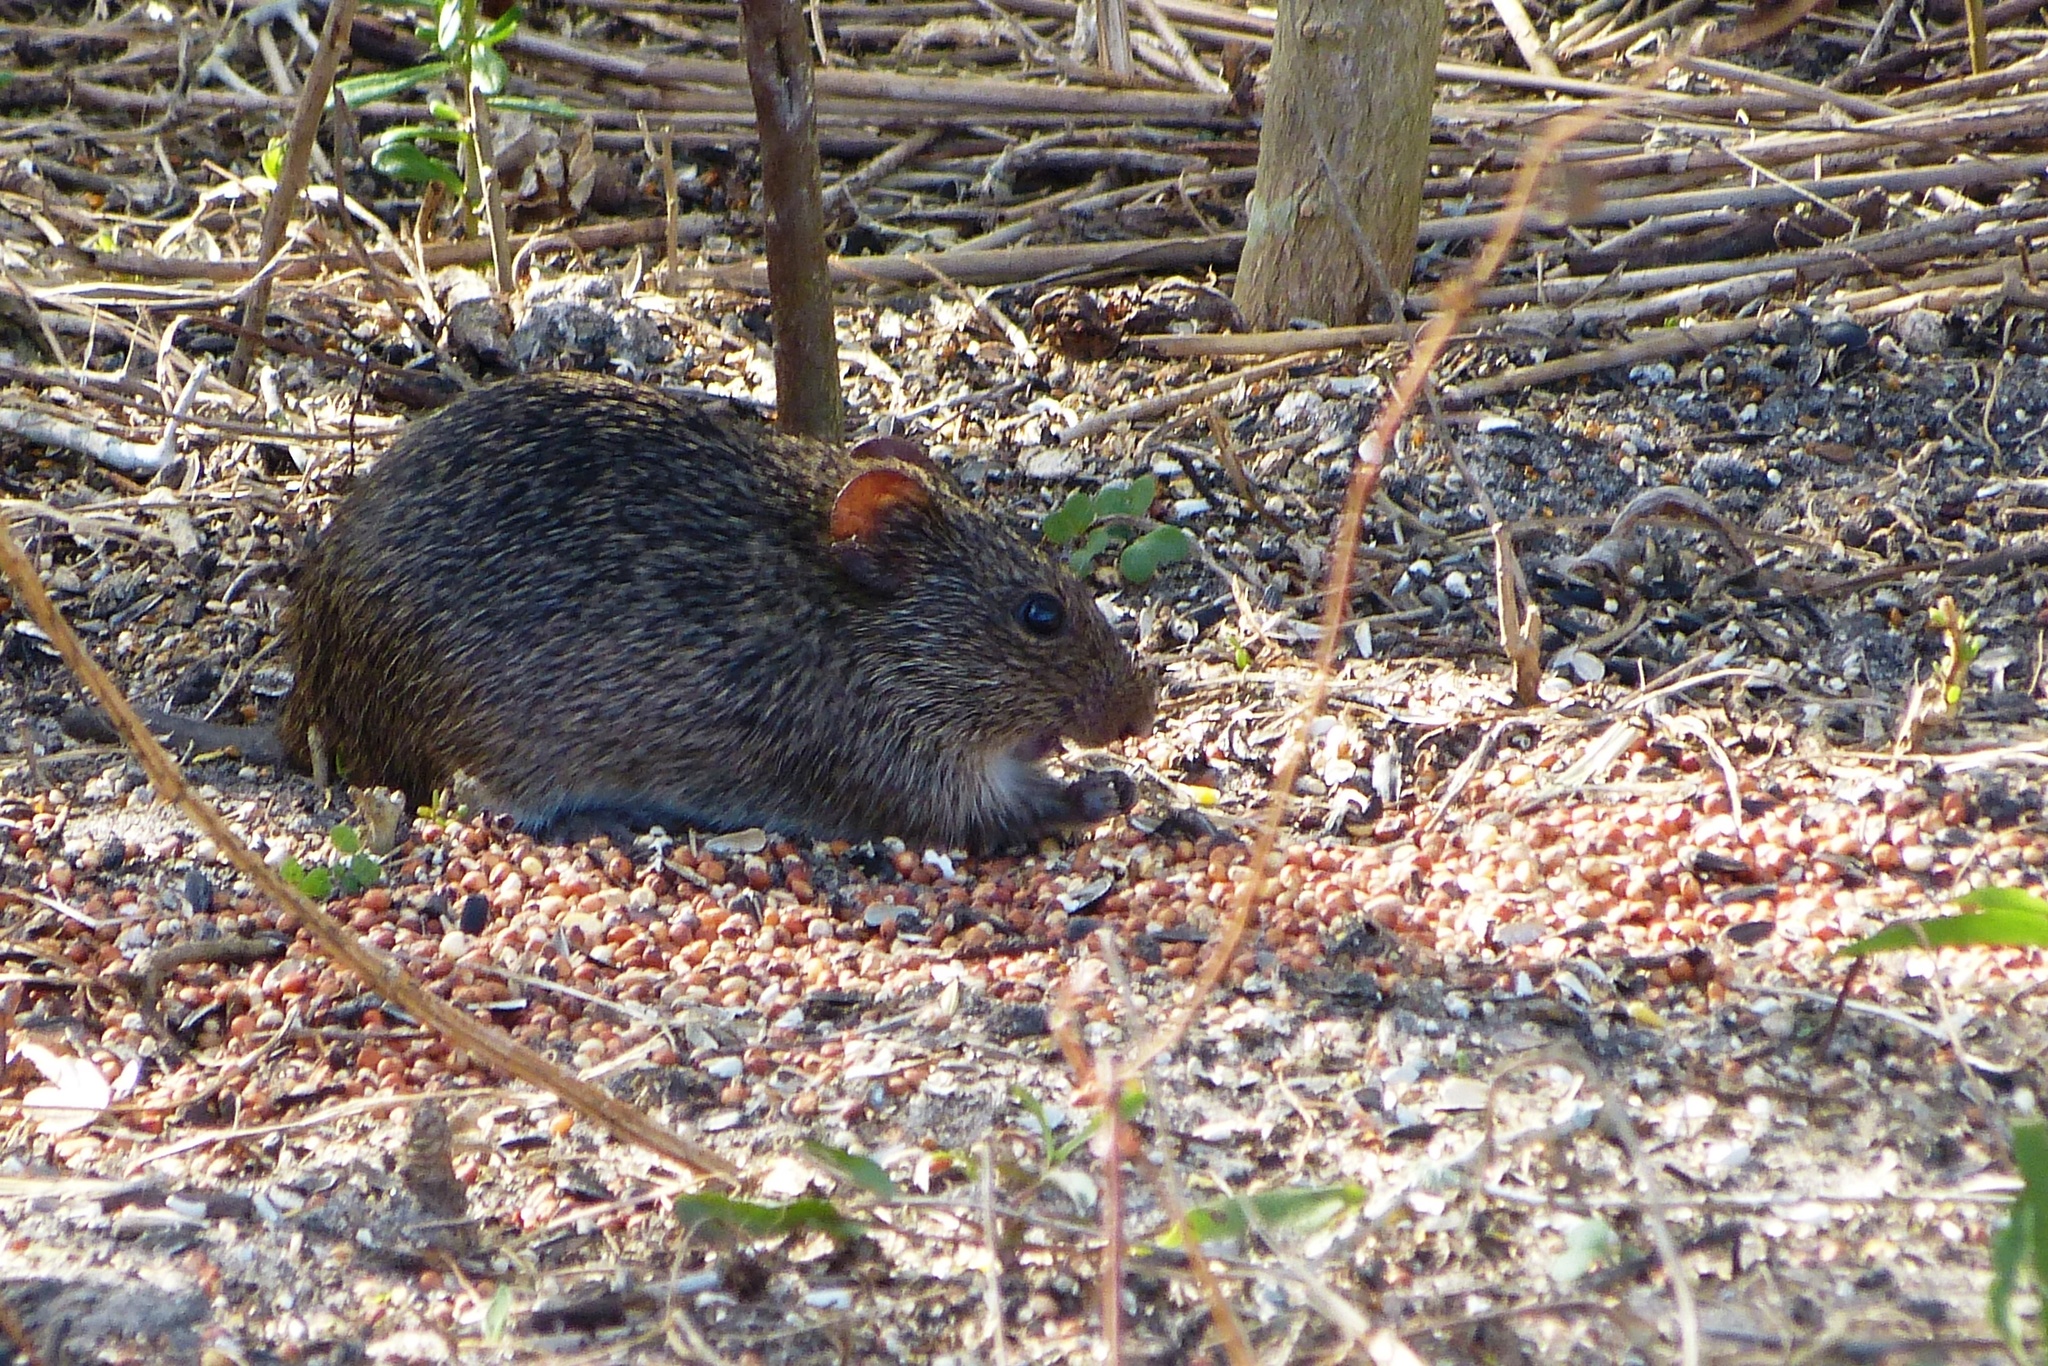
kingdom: Animalia
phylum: Chordata
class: Mammalia
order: Rodentia
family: Cricetidae
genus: Sigmodon
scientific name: Sigmodon hispidus
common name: Hispid cotton rat
